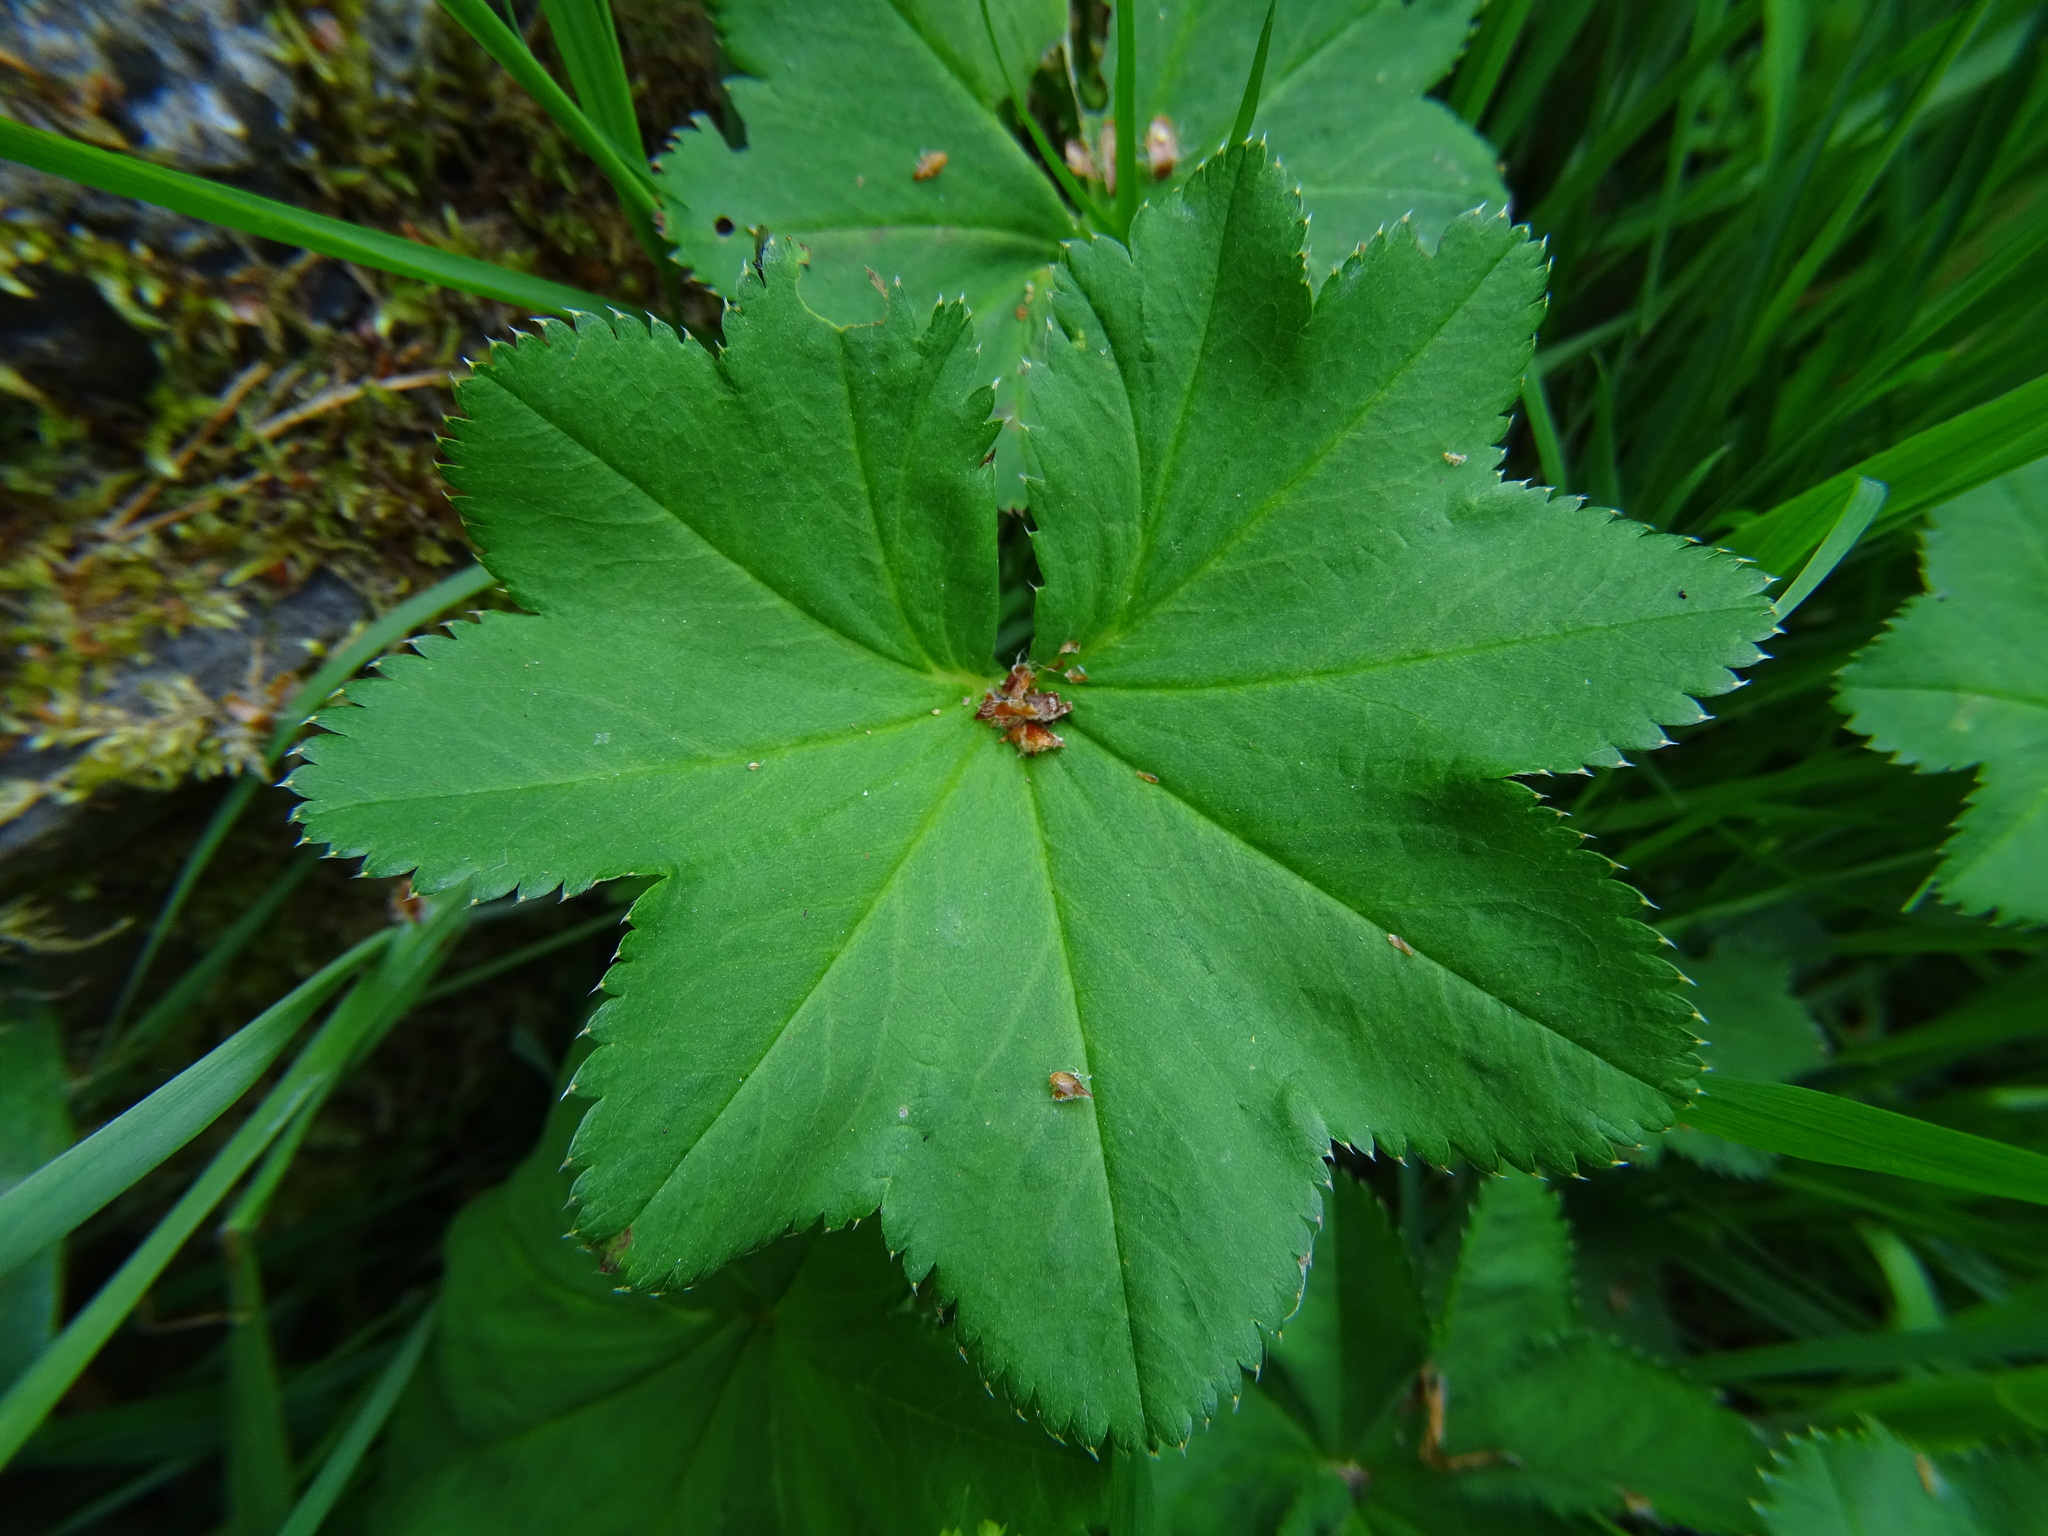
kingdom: Plantae
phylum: Tracheophyta
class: Magnoliopsida
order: Rosales
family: Rosaceae
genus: Alchemilla
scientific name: Alchemilla vulgaris
